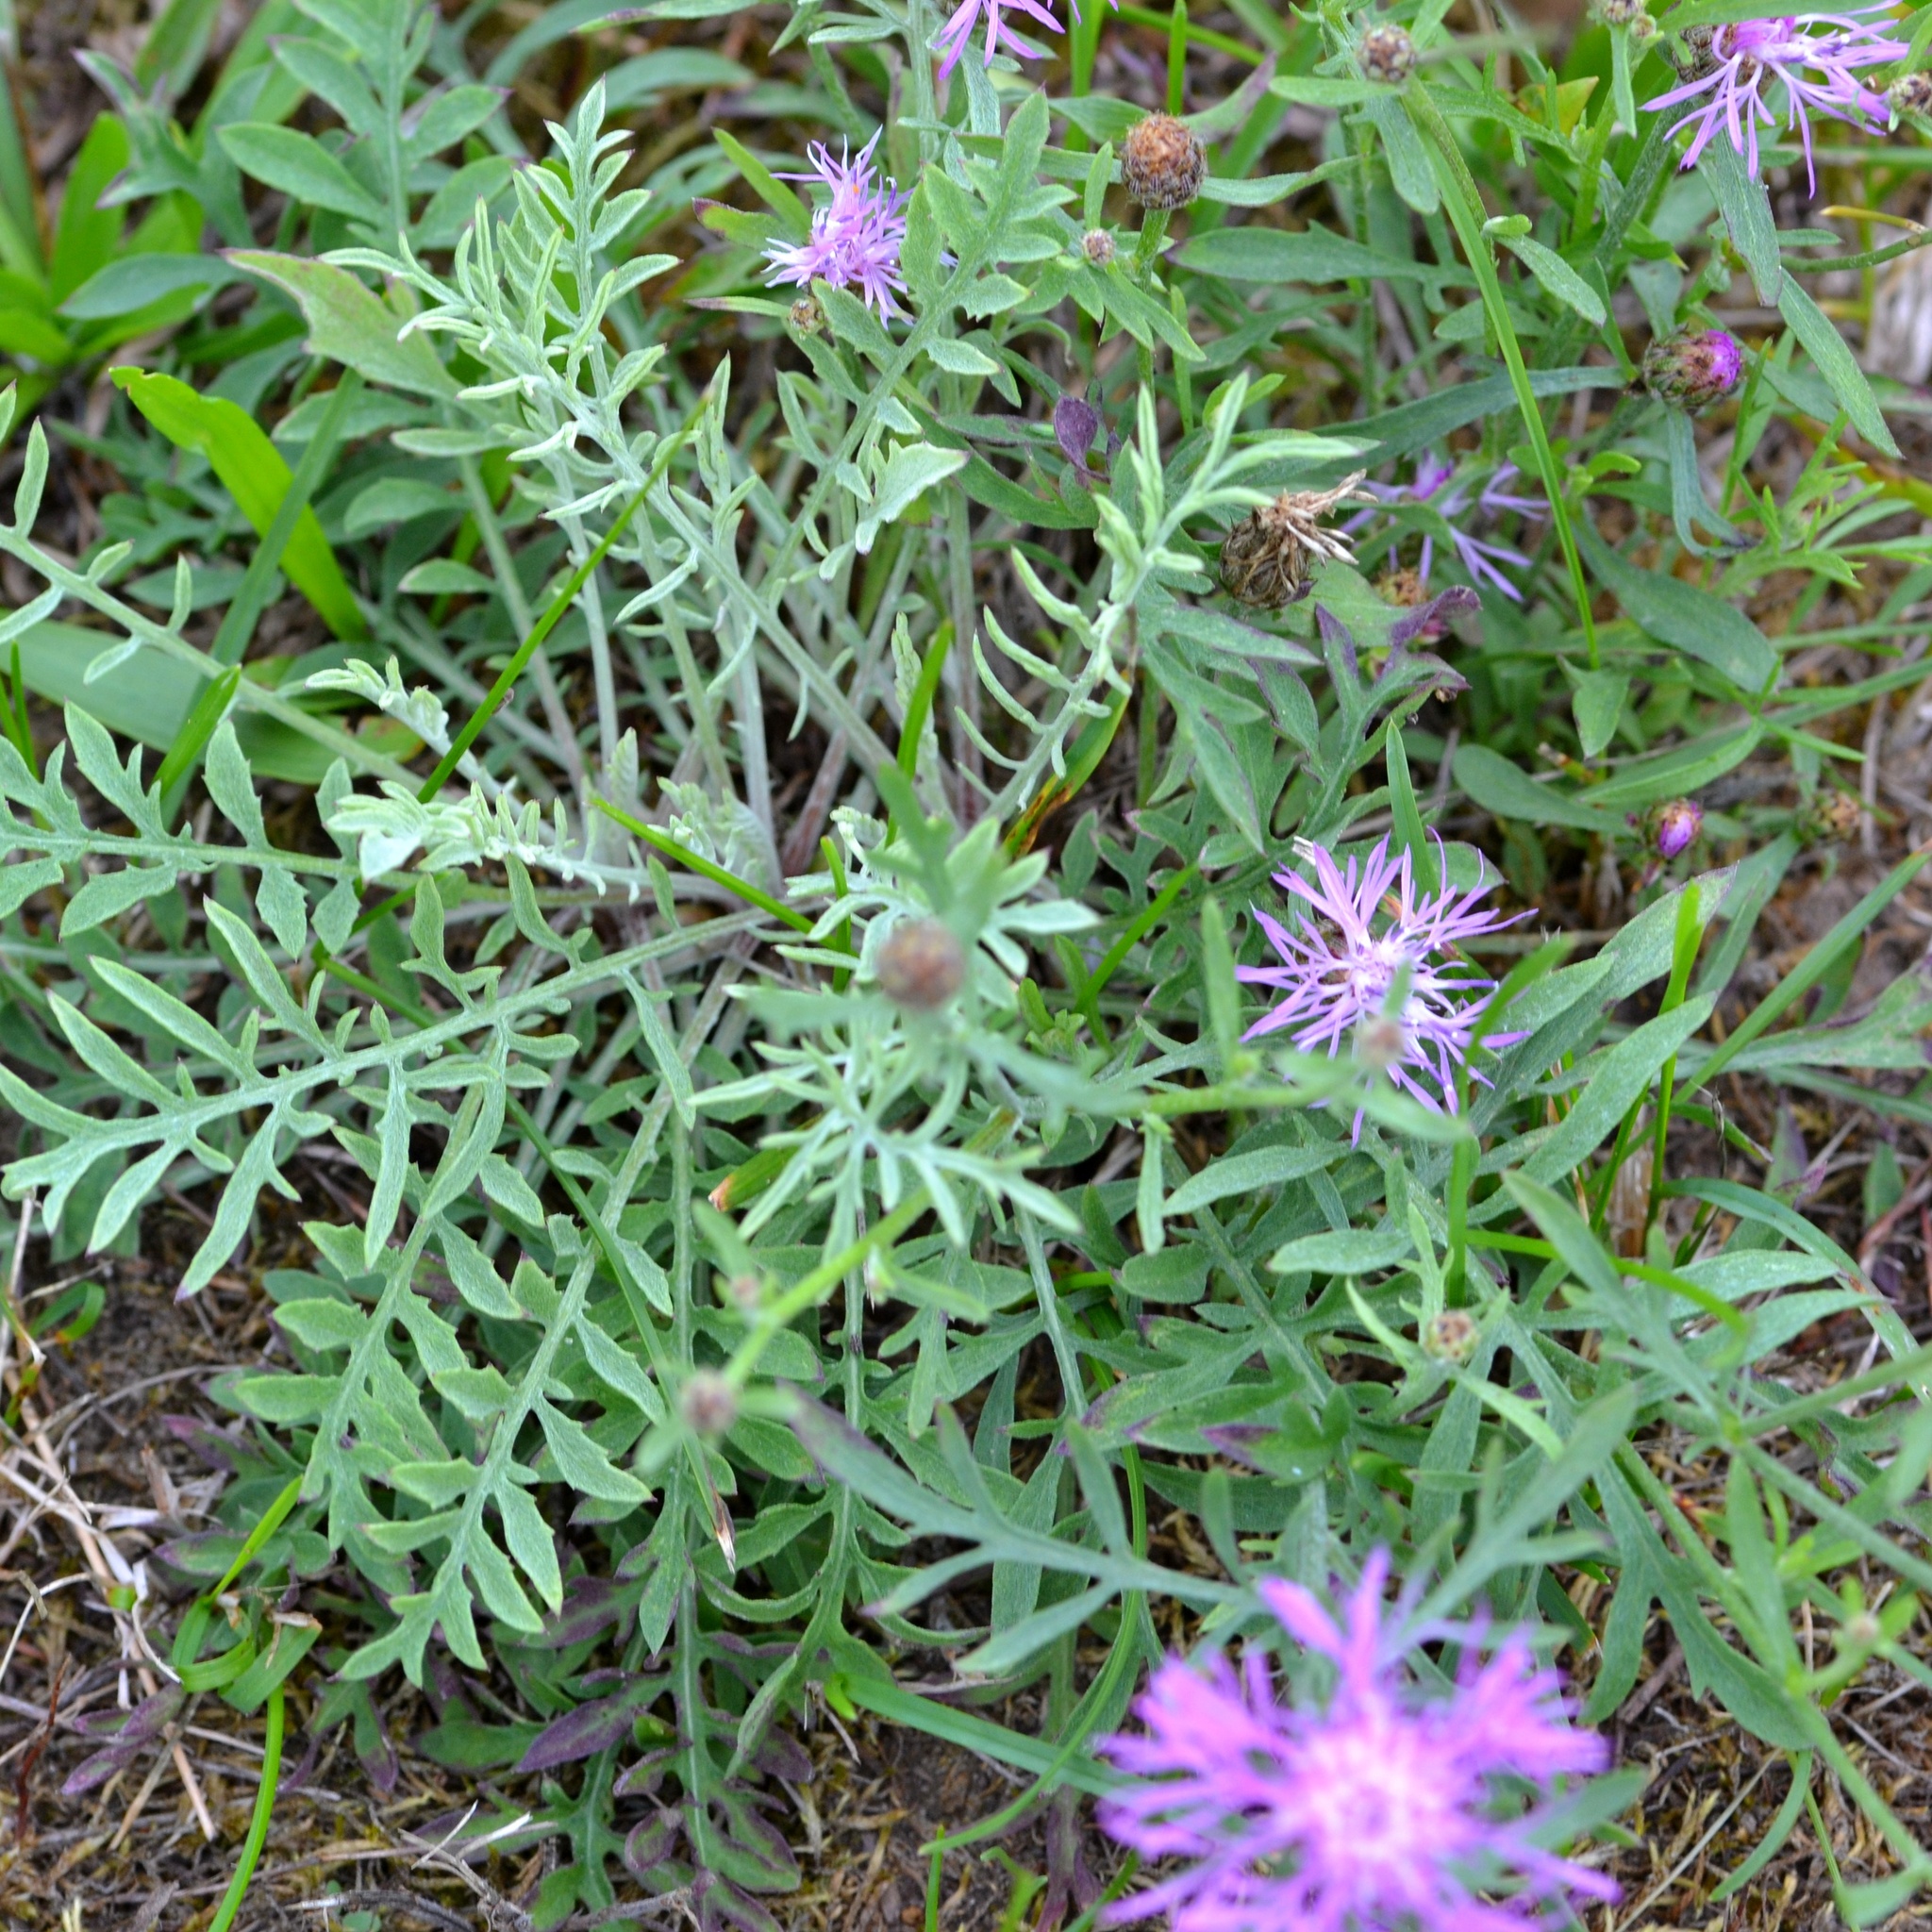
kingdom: Plantae
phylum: Tracheophyta
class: Magnoliopsida
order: Asterales
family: Asteraceae
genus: Centaurea
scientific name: Centaurea stoebe
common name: Spotted knapweed
